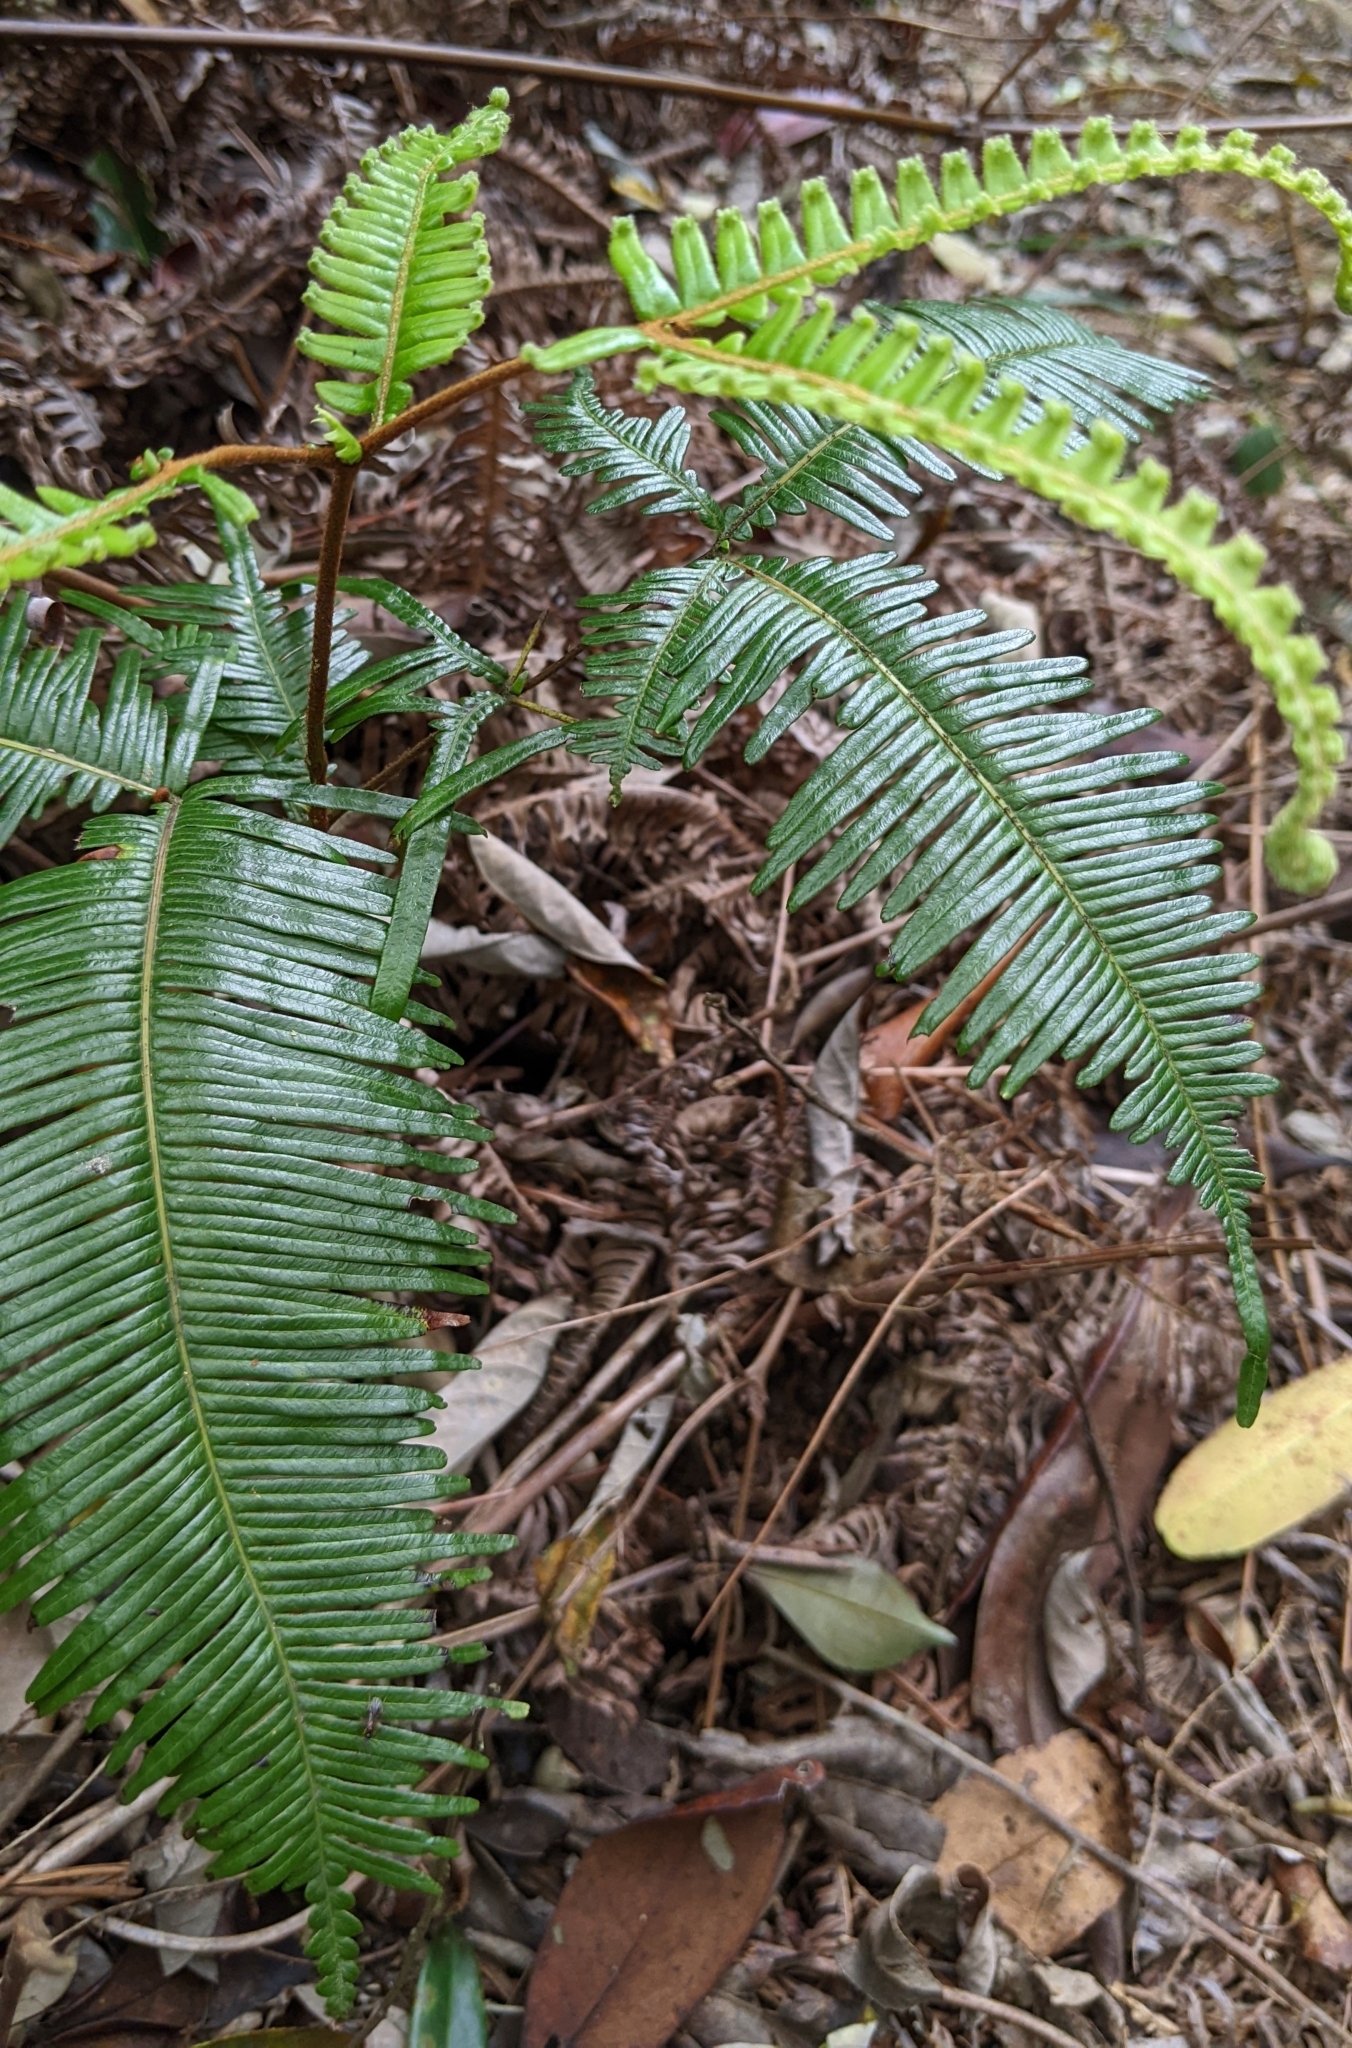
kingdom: Plantae
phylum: Tracheophyta
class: Polypodiopsida
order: Gleicheniales
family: Gleicheniaceae
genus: Dicranopteris
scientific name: Dicranopteris linearis
